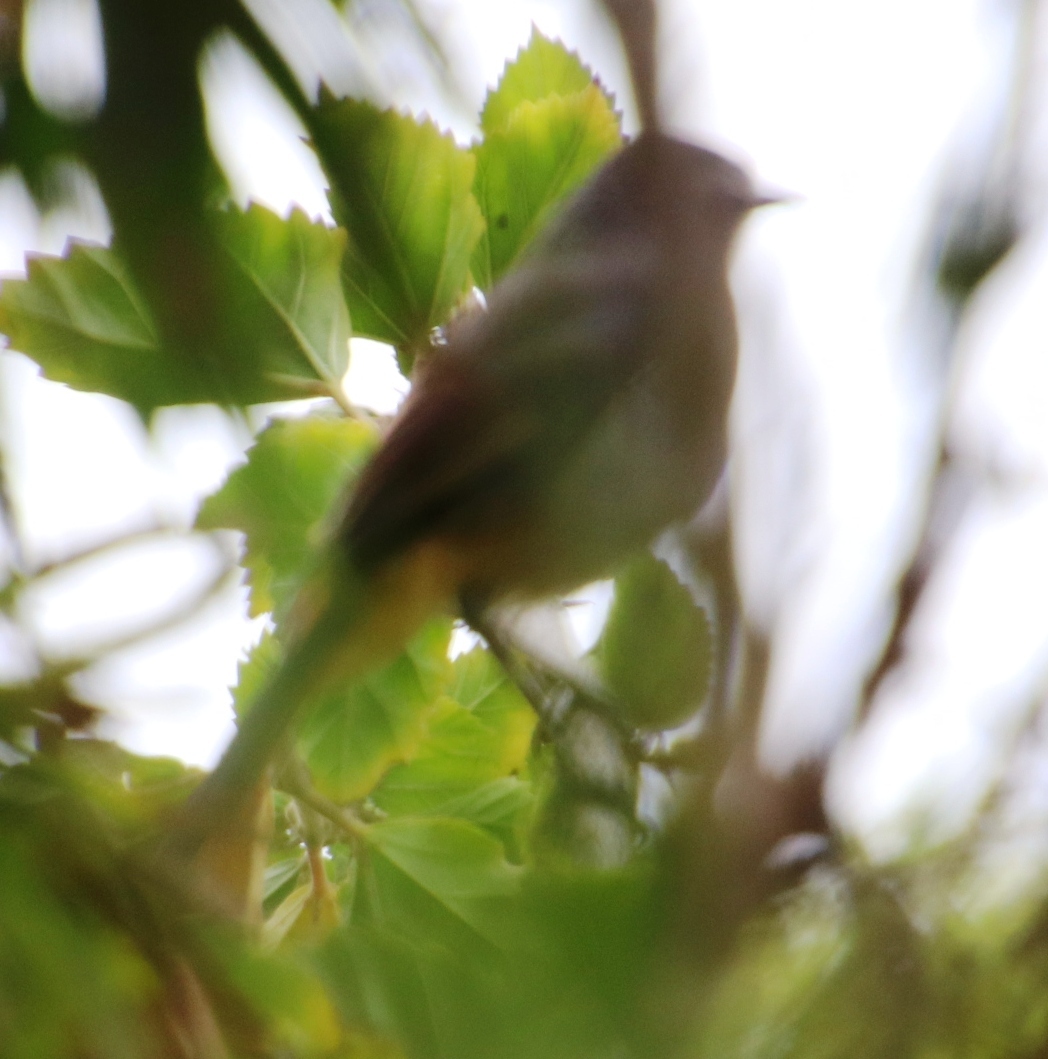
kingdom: Animalia
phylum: Chordata
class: Aves
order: Passeriformes
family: Muscicapidae
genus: Cossypha
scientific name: Cossypha caffra
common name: Cape robin-chat
